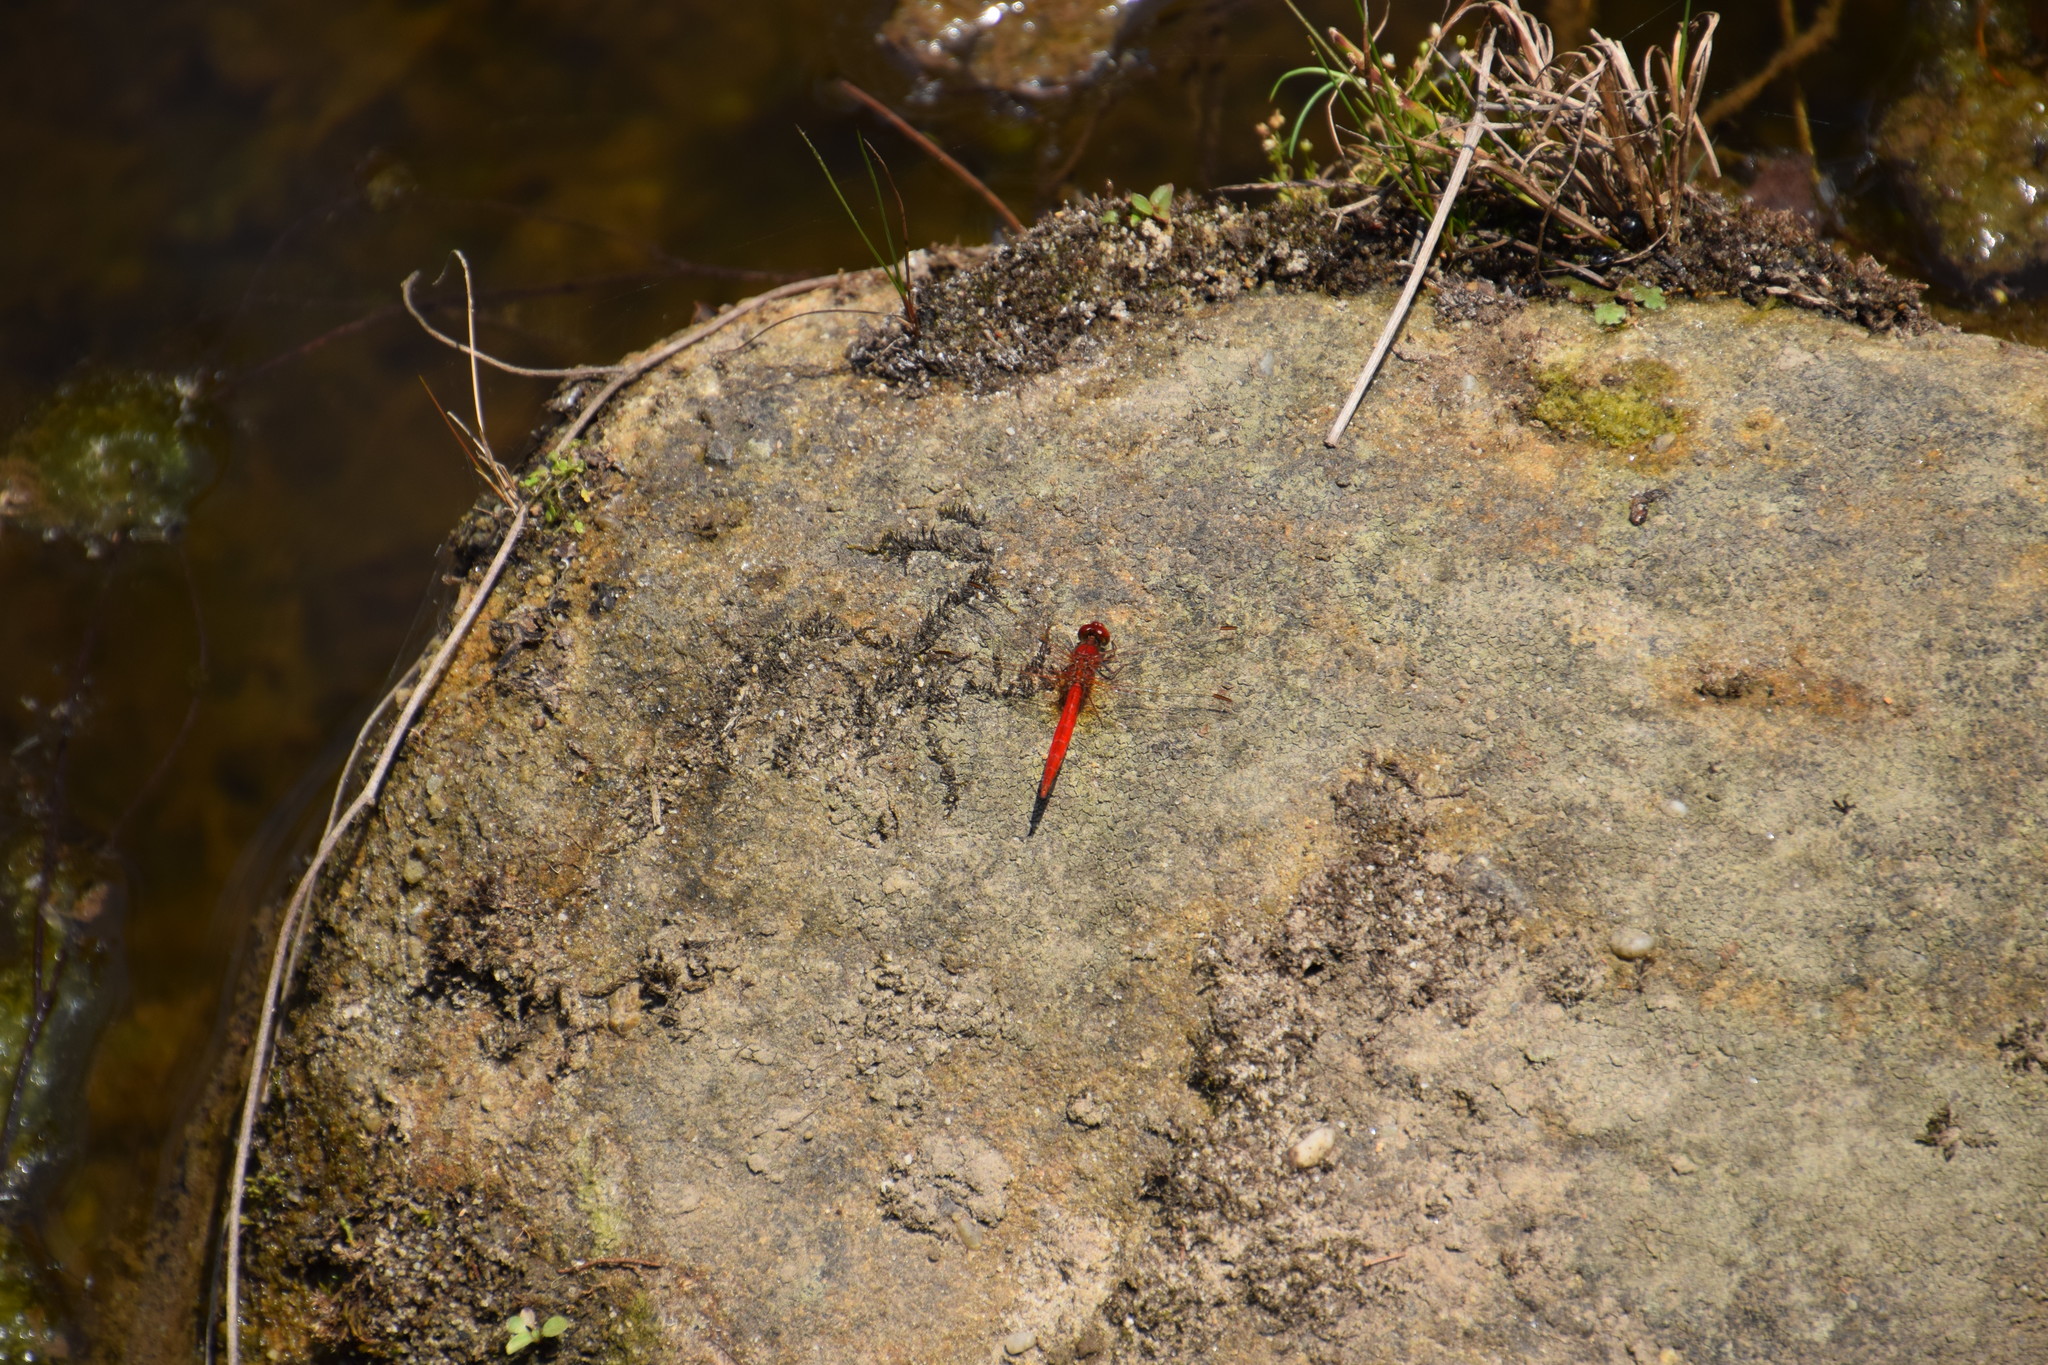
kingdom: Animalia
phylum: Arthropoda
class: Insecta
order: Odonata
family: Libellulidae
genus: Diplacodes
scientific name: Diplacodes haematodes
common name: Scarlet percher
